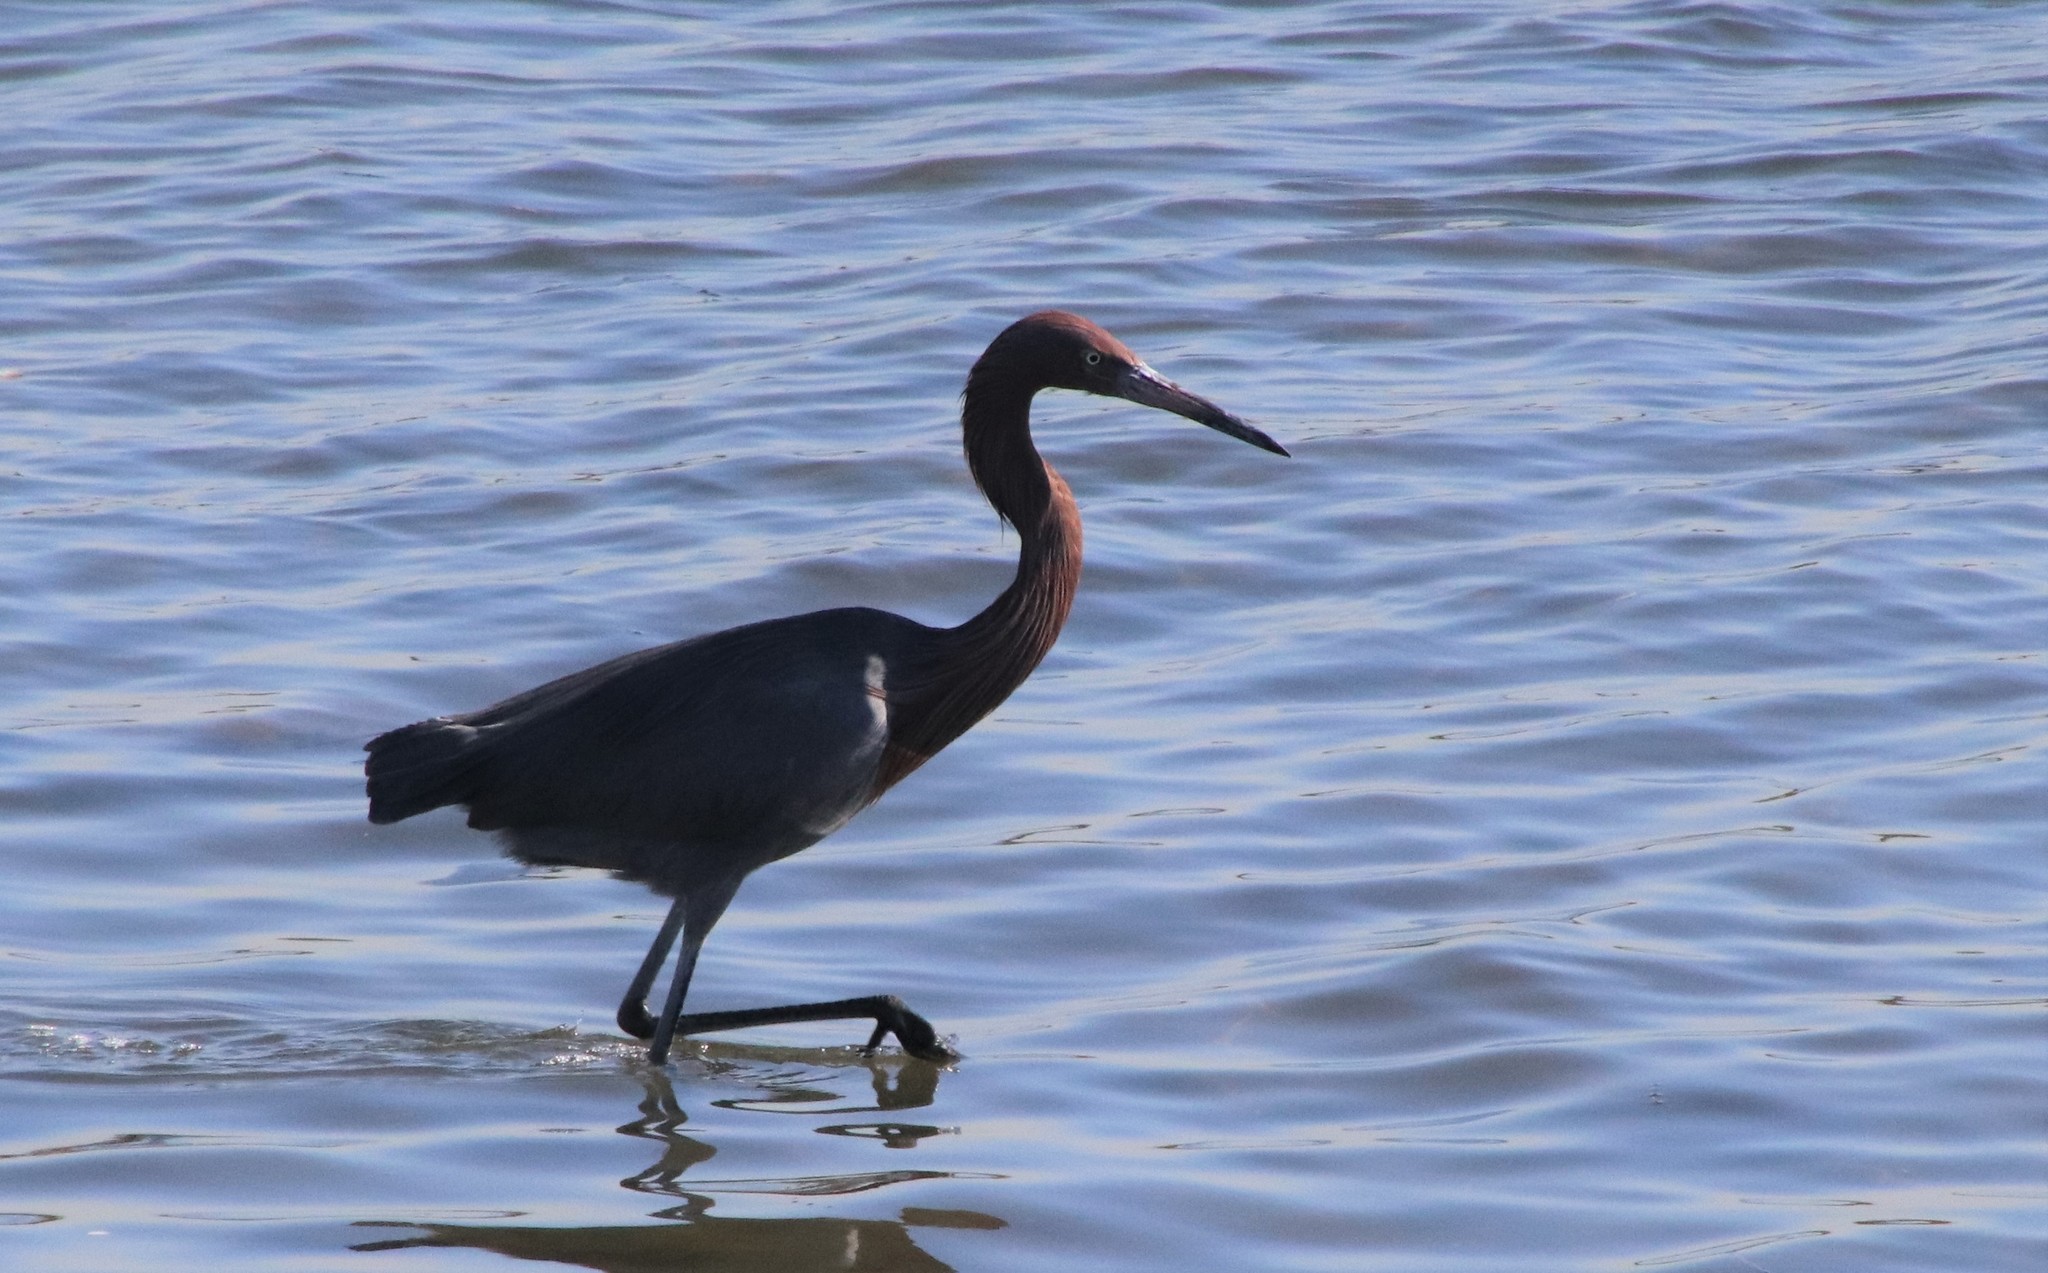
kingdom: Animalia
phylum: Chordata
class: Aves
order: Pelecaniformes
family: Ardeidae
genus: Egretta
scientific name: Egretta rufescens
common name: Reddish egret
